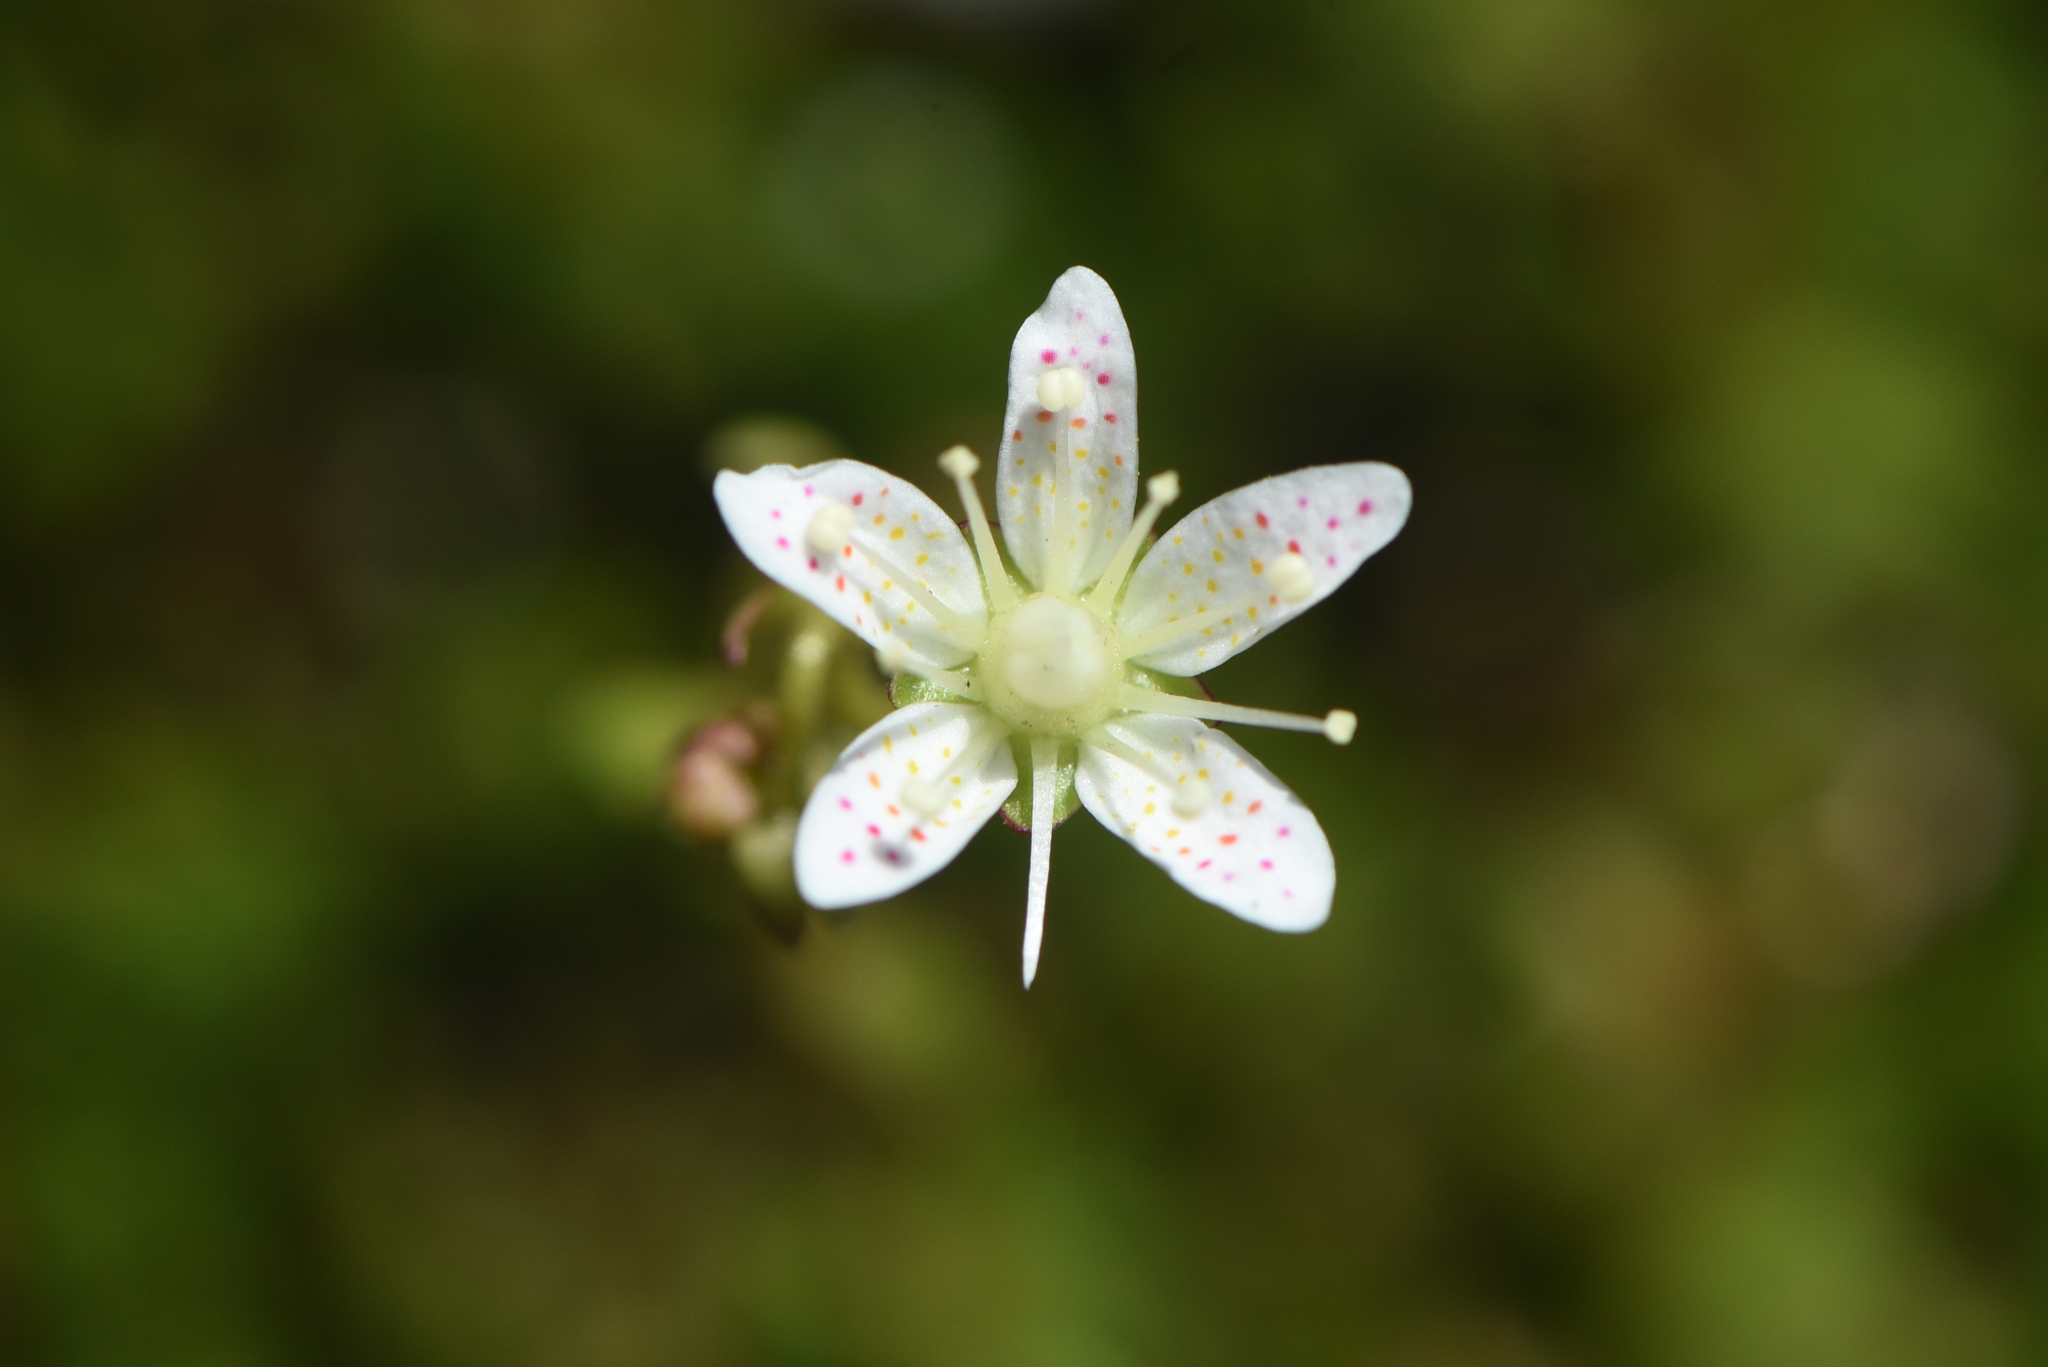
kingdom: Plantae
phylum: Tracheophyta
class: Magnoliopsida
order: Saxifragales
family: Saxifragaceae
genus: Saxifraga
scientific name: Saxifraga bronchialis
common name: Matted saxifrage
